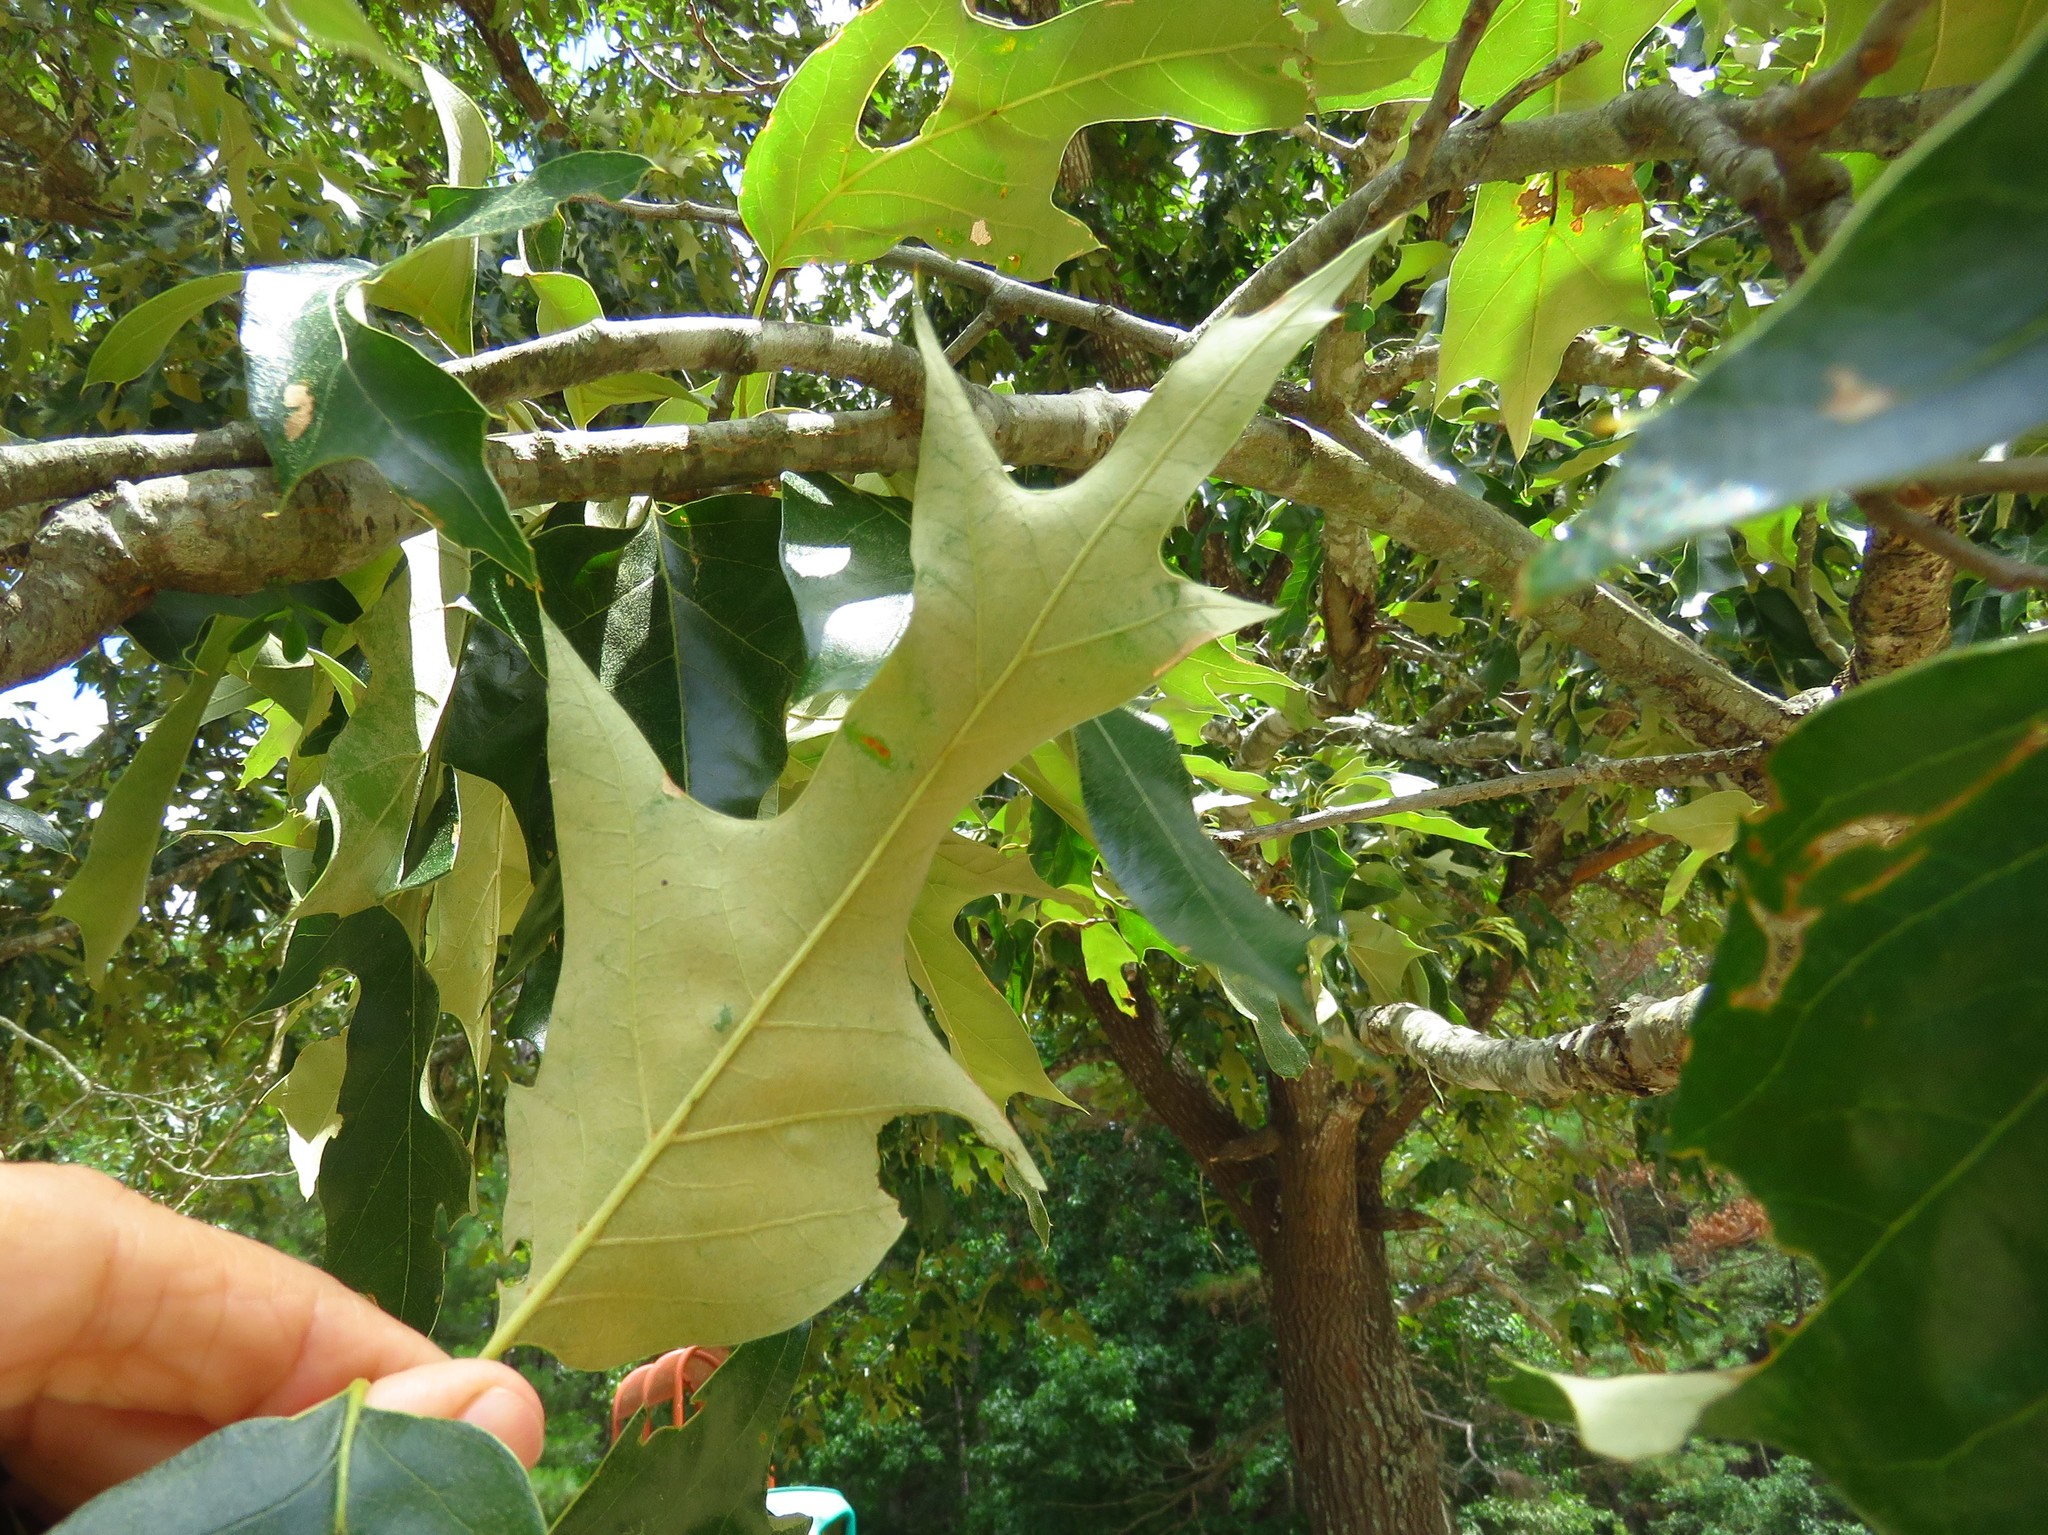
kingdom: Plantae
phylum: Tracheophyta
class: Magnoliopsida
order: Fagales
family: Fagaceae
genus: Quercus
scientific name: Quercus falcata
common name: Southern red oak
